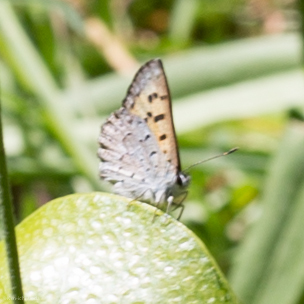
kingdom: Animalia
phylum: Arthropoda
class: Insecta
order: Lepidoptera
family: Lycaenidae
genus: Tharsalea
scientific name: Tharsalea mariposa
